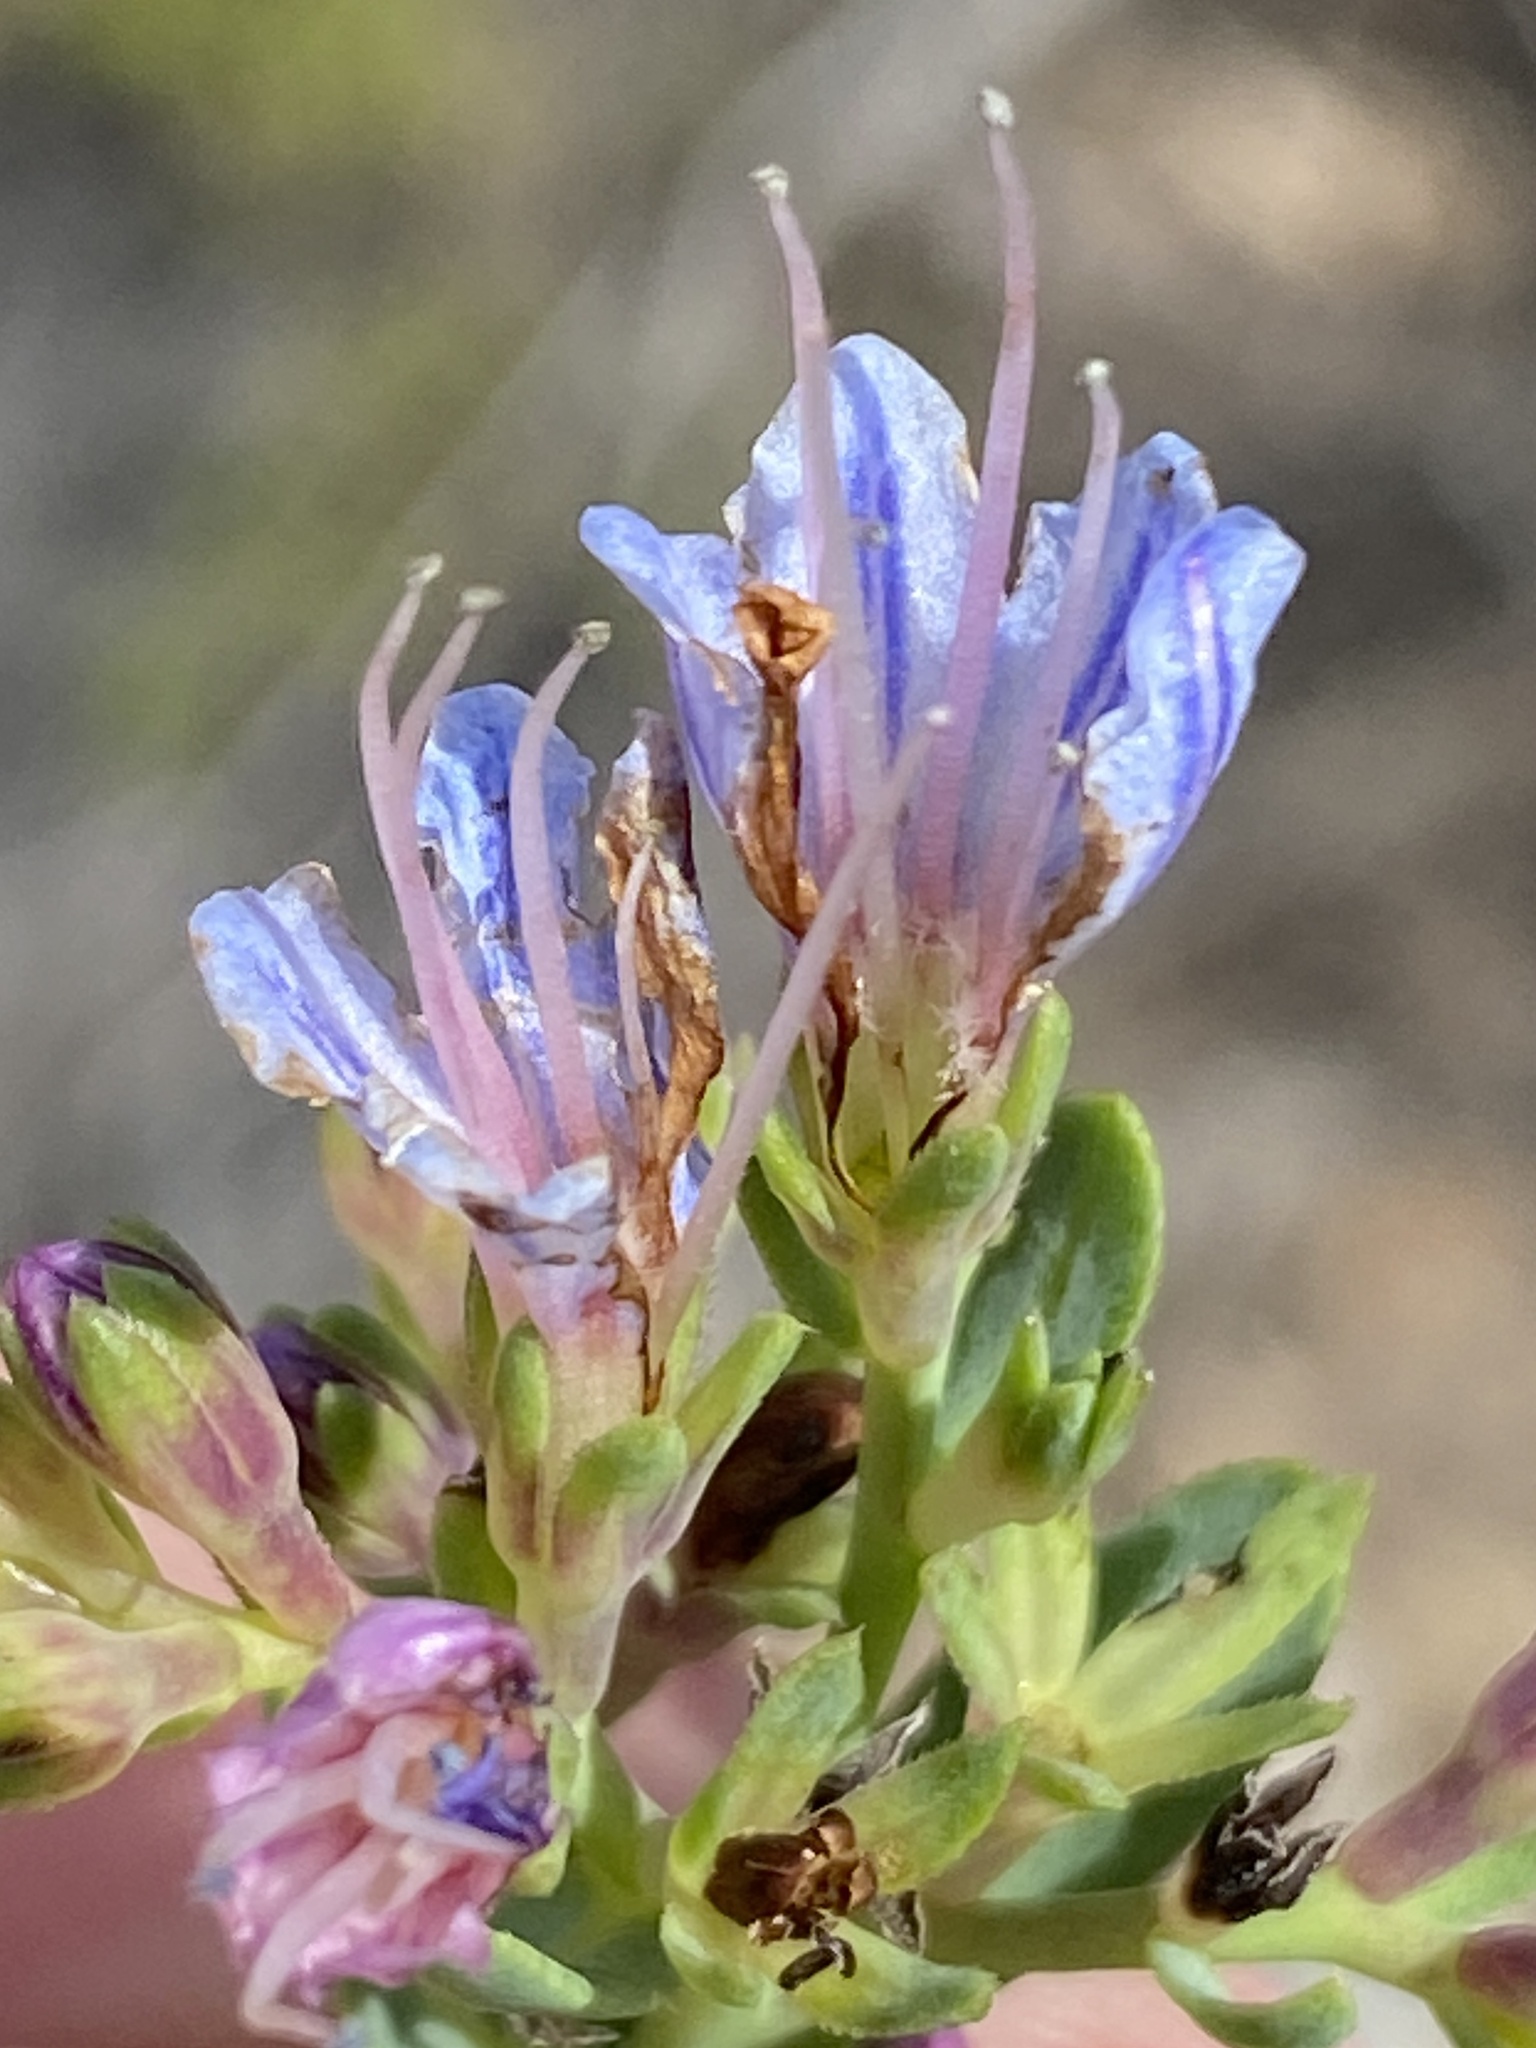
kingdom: Plantae
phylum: Tracheophyta
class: Magnoliopsida
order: Boraginales
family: Boraginaceae
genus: Lobostemon
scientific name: Lobostemon glaucophyllus
